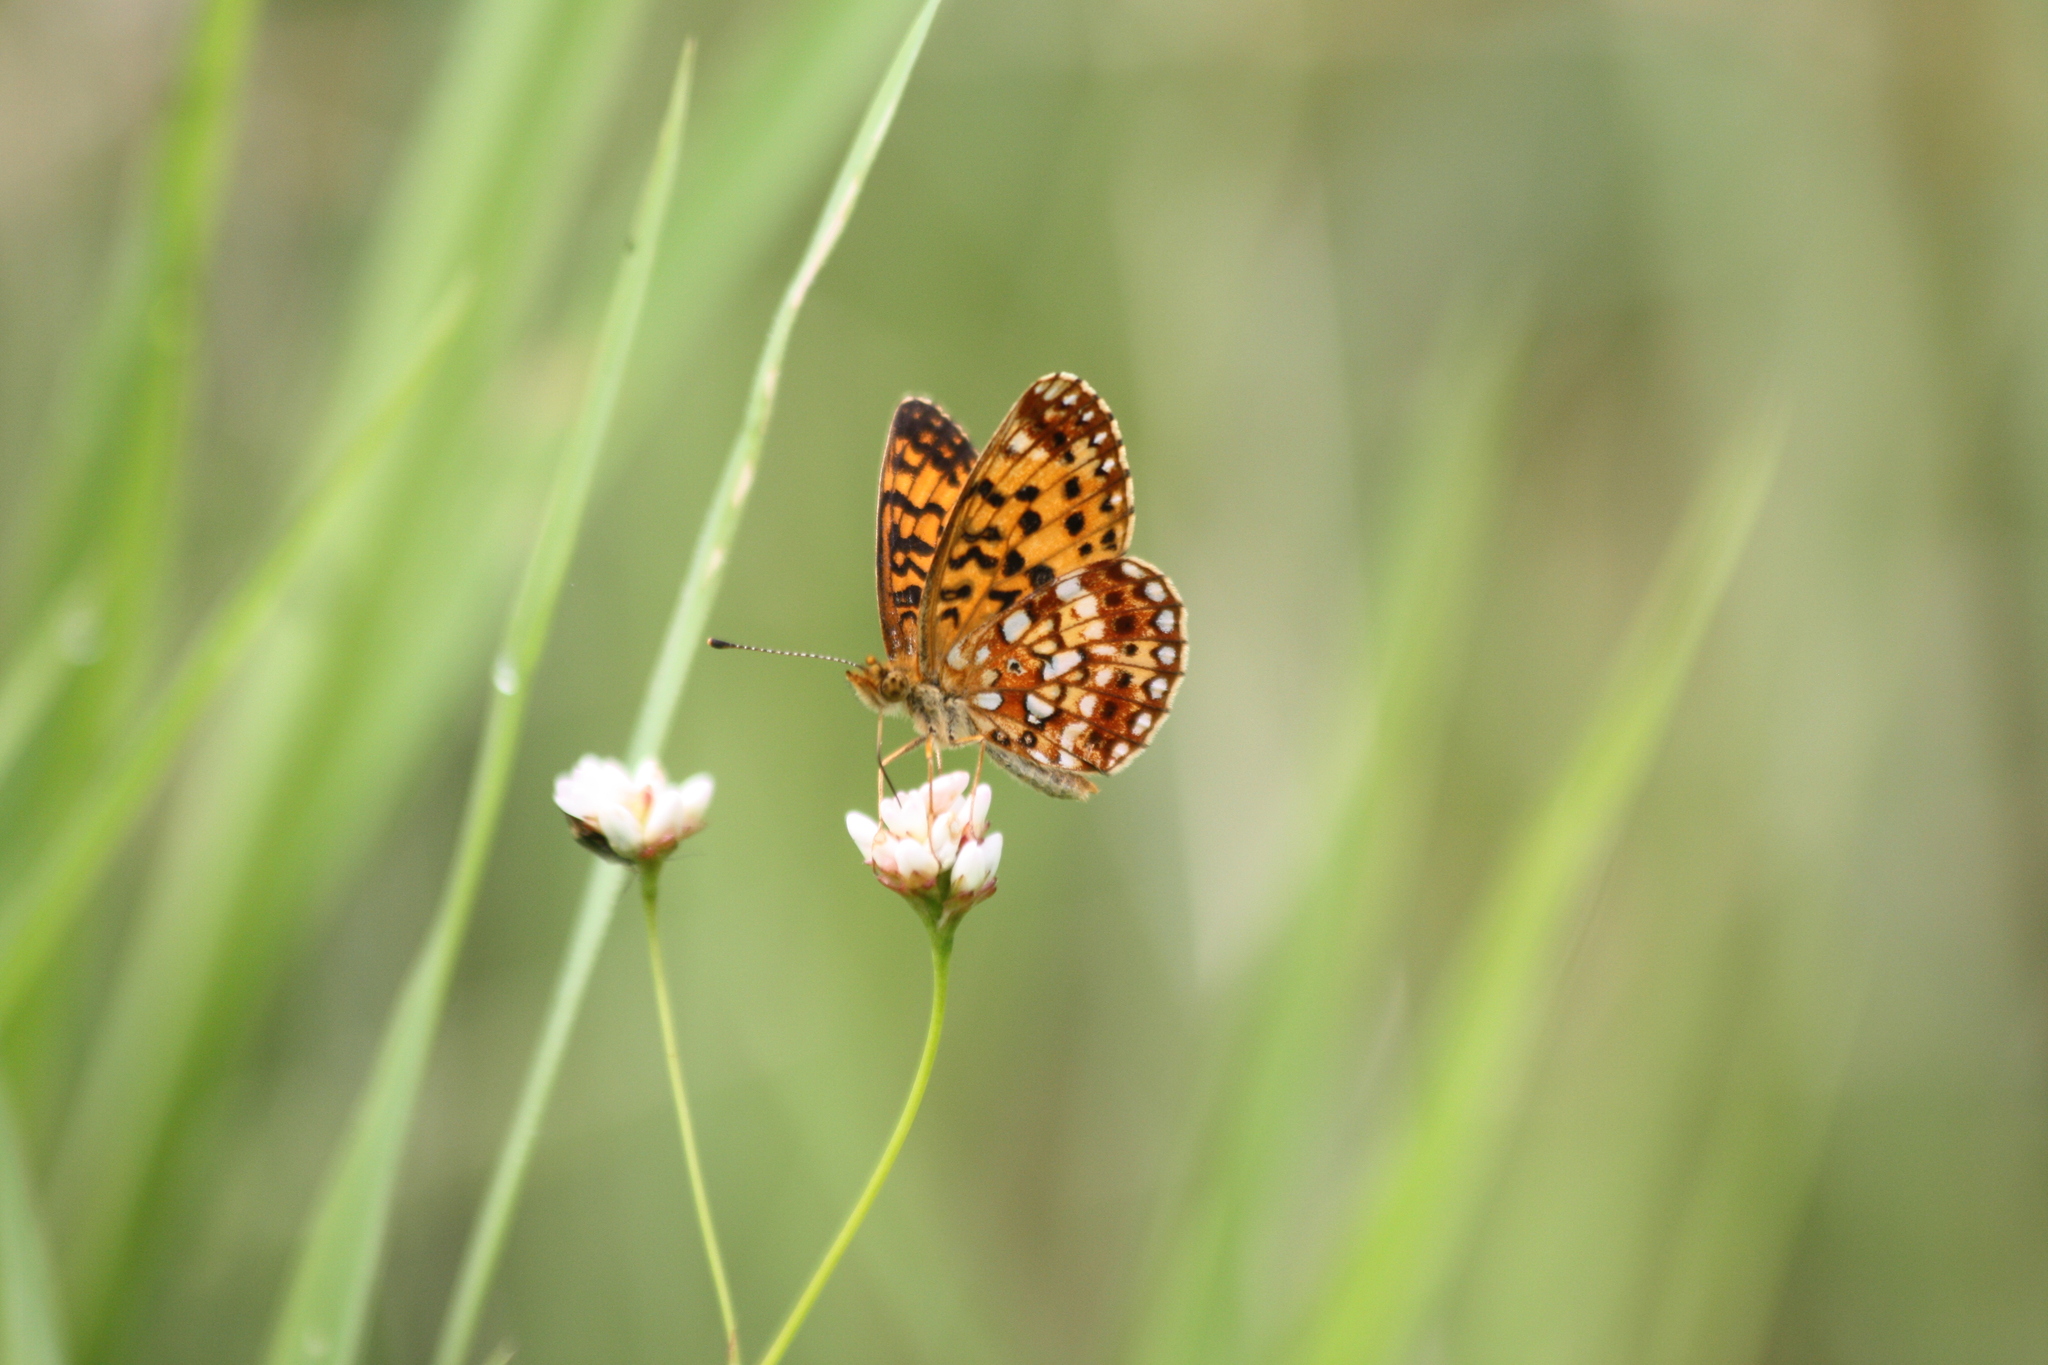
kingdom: Animalia
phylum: Arthropoda
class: Insecta
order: Lepidoptera
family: Nymphalidae
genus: Boloria
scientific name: Boloria
